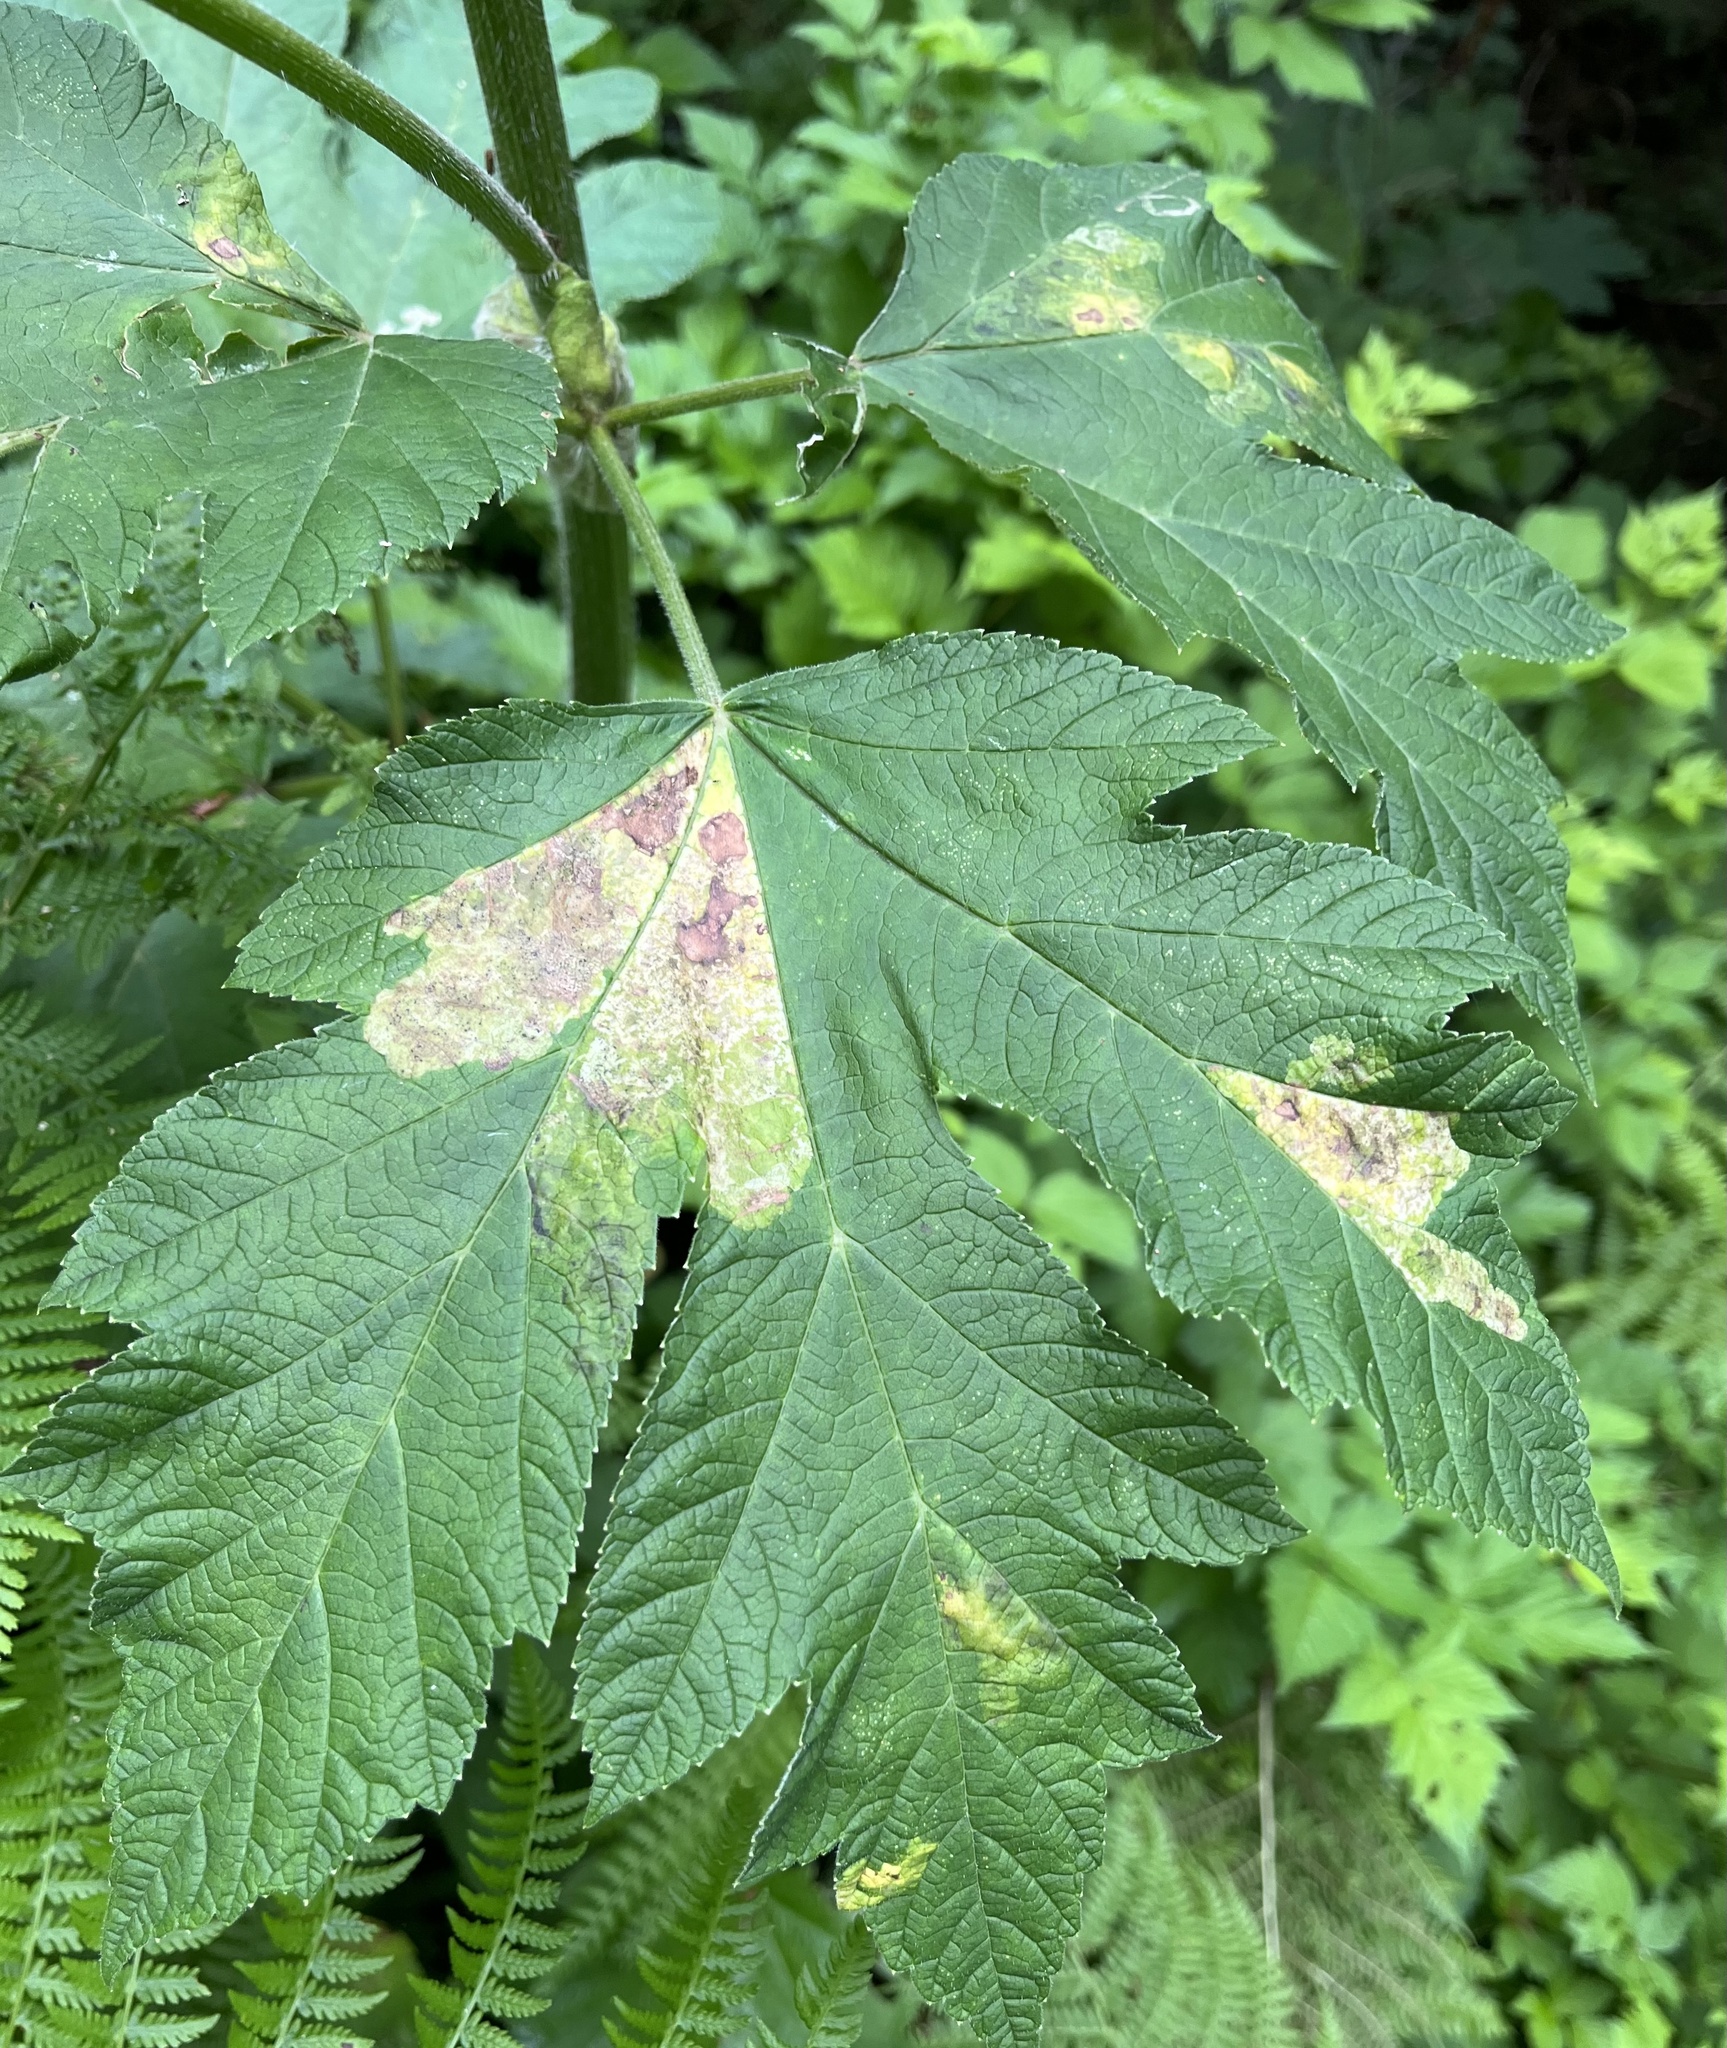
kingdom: Plantae
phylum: Tracheophyta
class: Magnoliopsida
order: Apiales
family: Apiaceae
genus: Heracleum
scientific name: Heracleum maximum
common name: American cow parsnip
